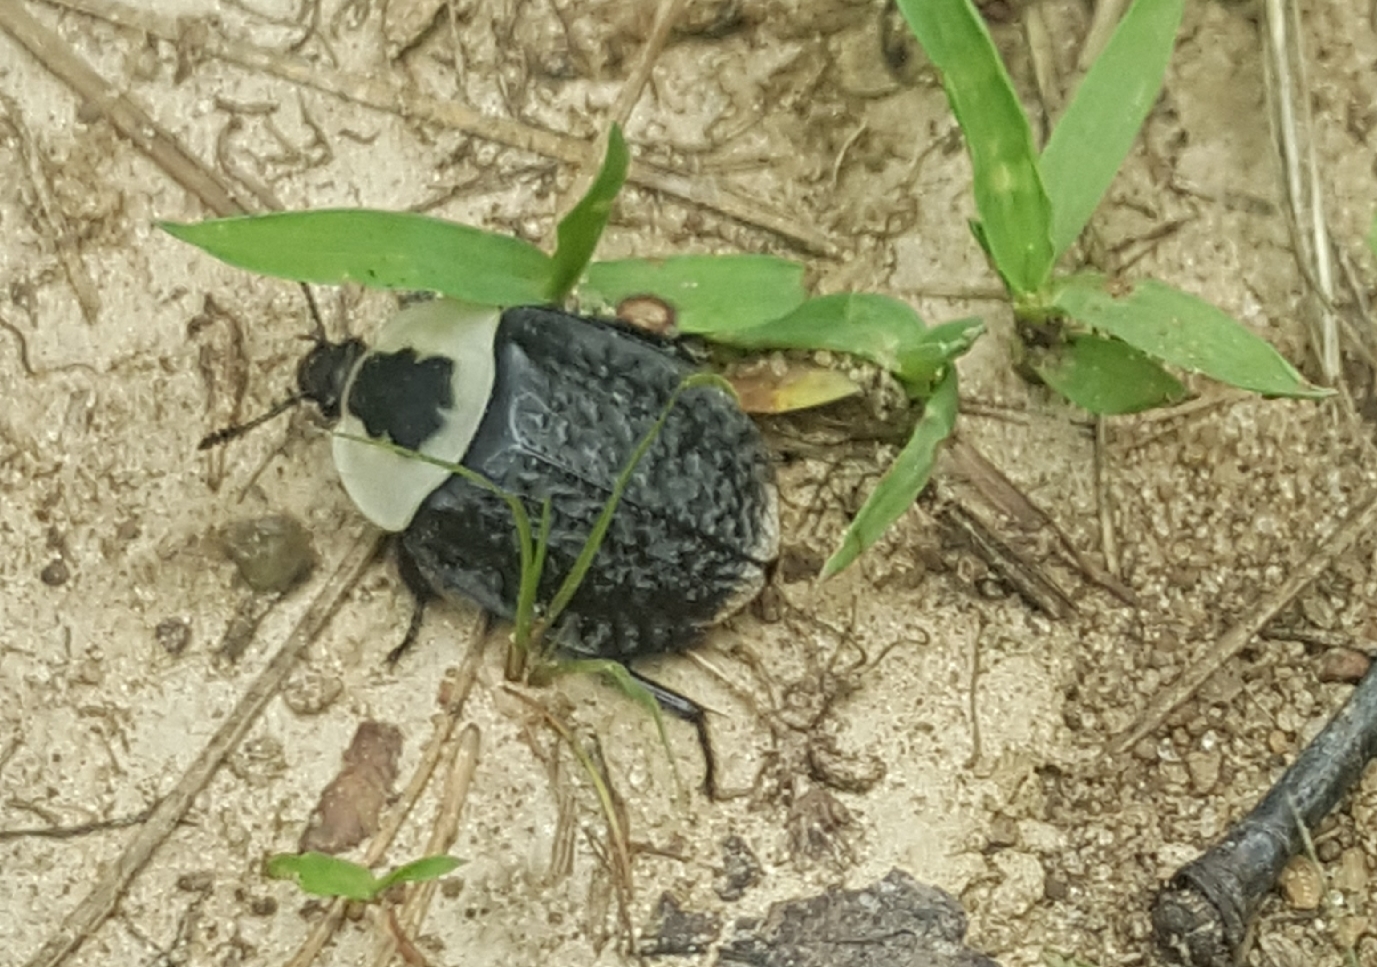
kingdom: Animalia
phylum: Arthropoda
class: Insecta
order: Coleoptera
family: Staphylinidae
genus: Necrophila
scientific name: Necrophila americana
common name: American carrion beetle
